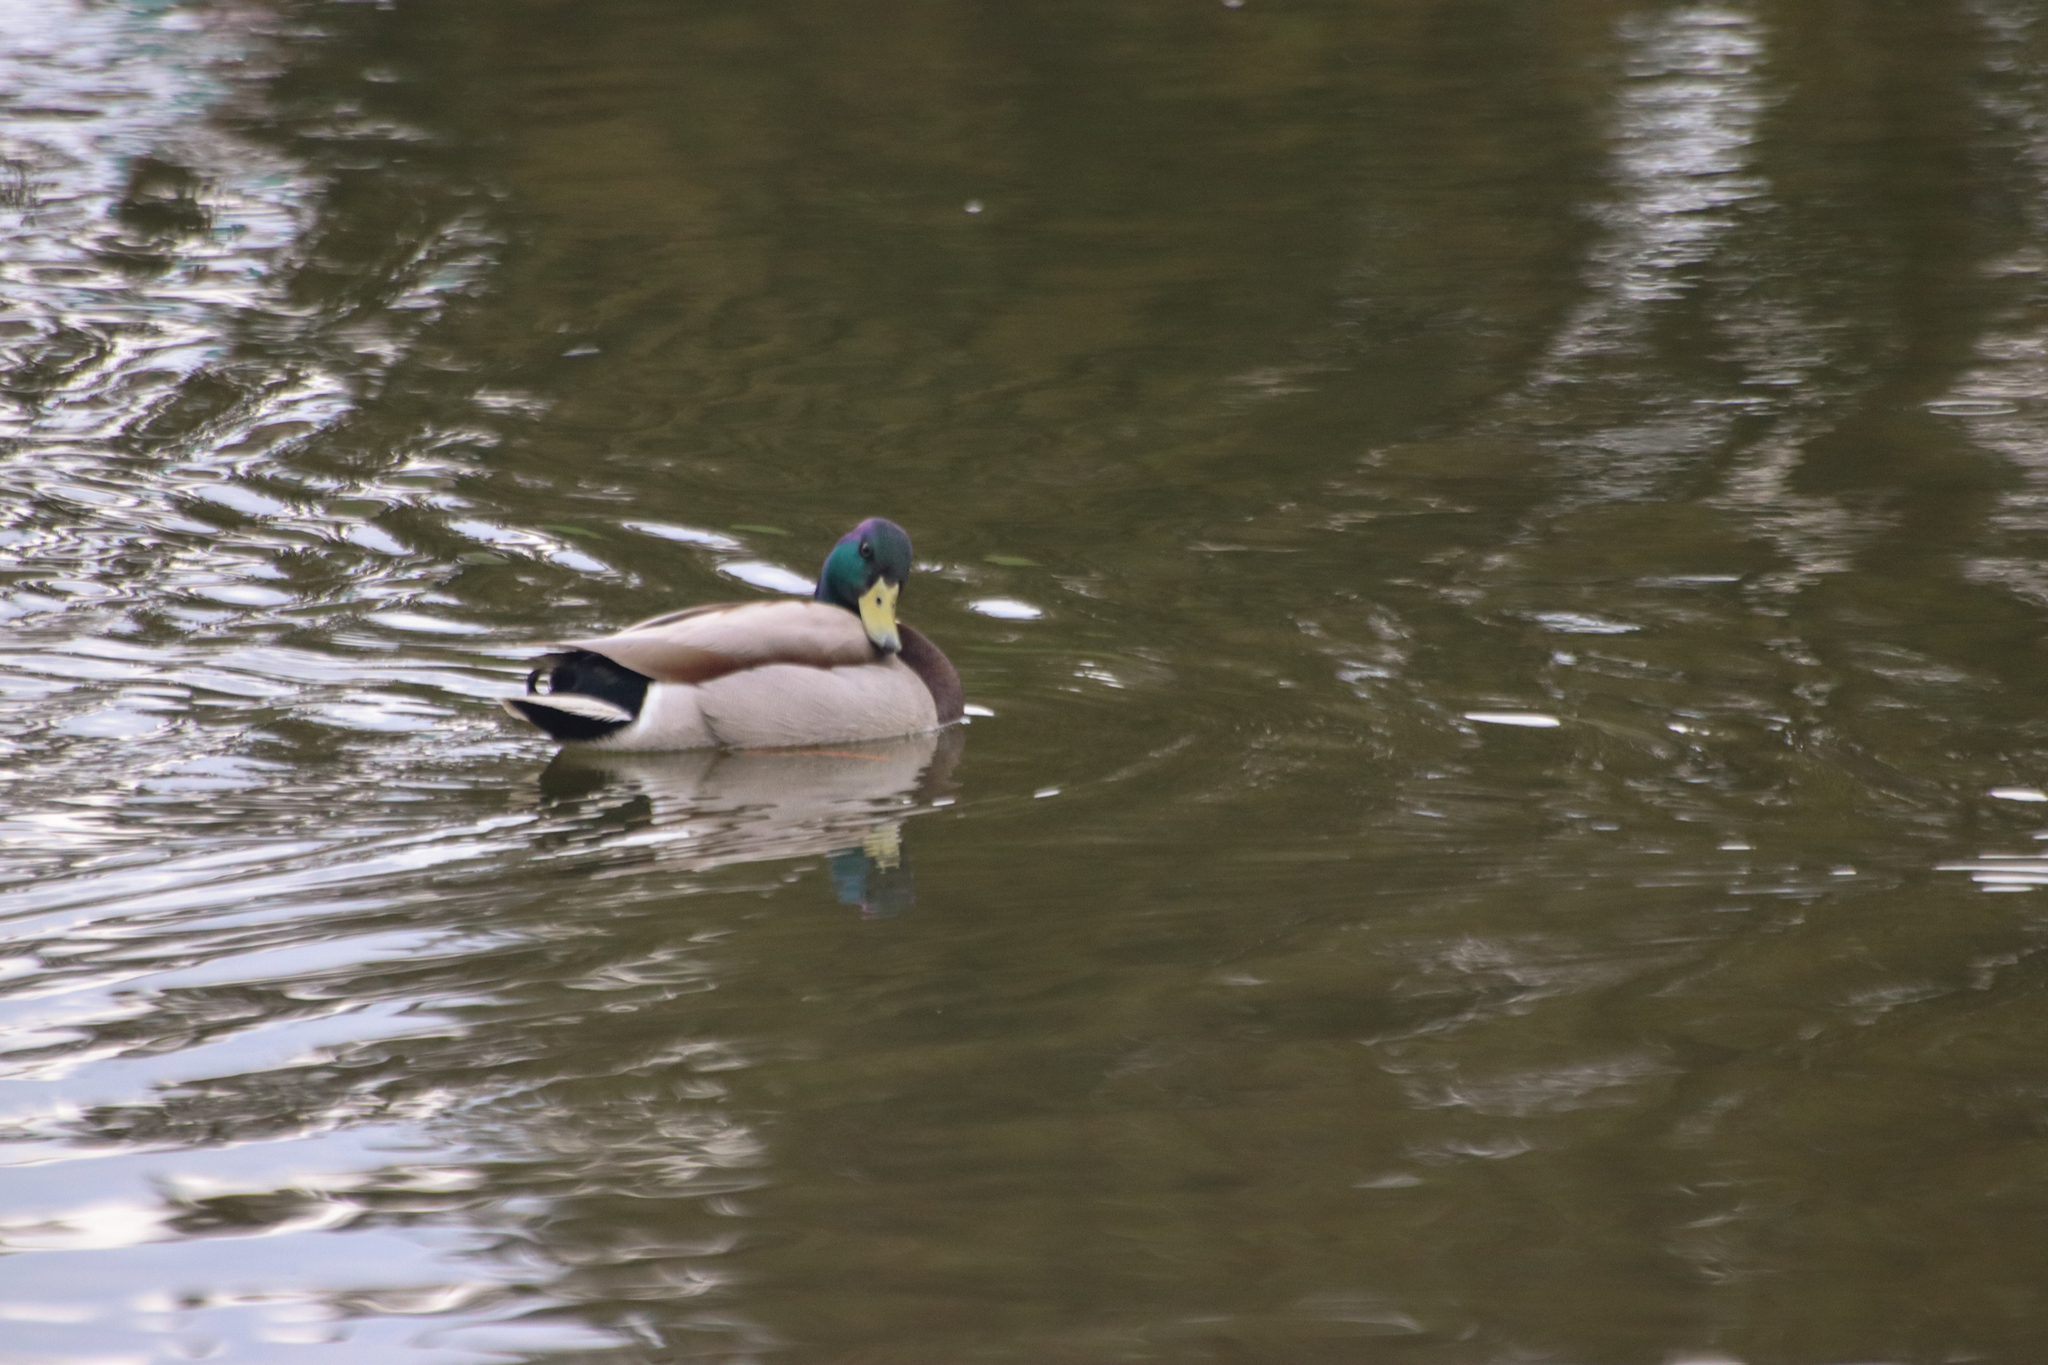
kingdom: Animalia
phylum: Chordata
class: Aves
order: Anseriformes
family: Anatidae
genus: Anas
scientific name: Anas platyrhynchos
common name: Mallard
